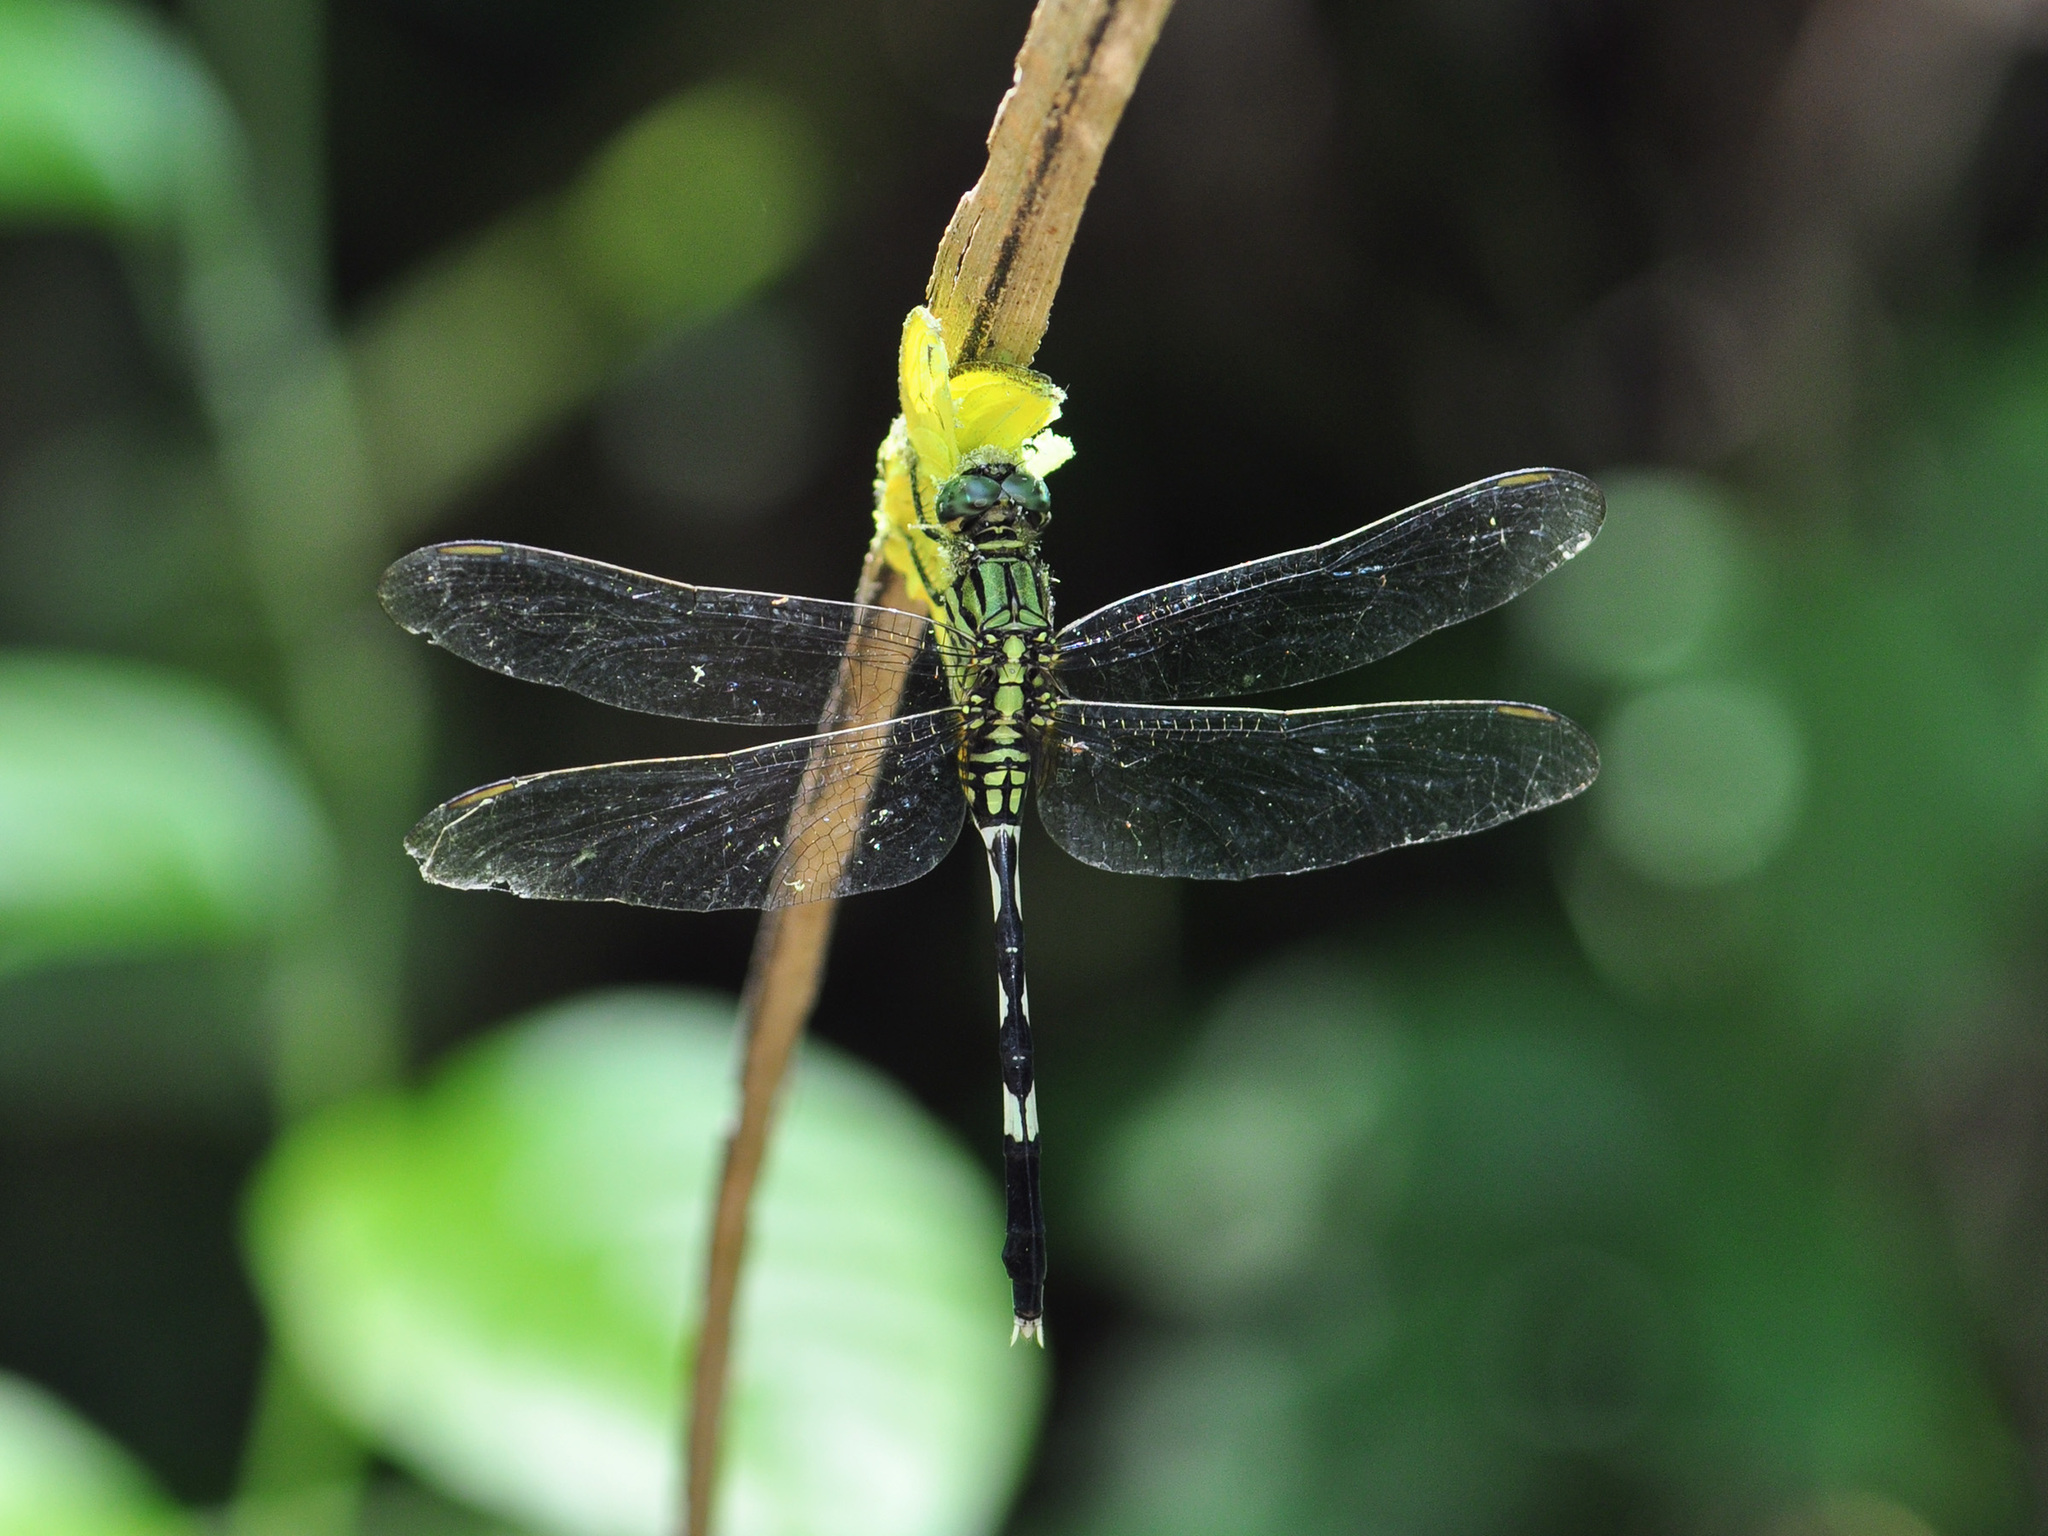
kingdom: Animalia
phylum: Arthropoda
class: Insecta
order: Odonata
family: Libellulidae
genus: Orthetrum
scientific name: Orthetrum sabina
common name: Slender skimmer
